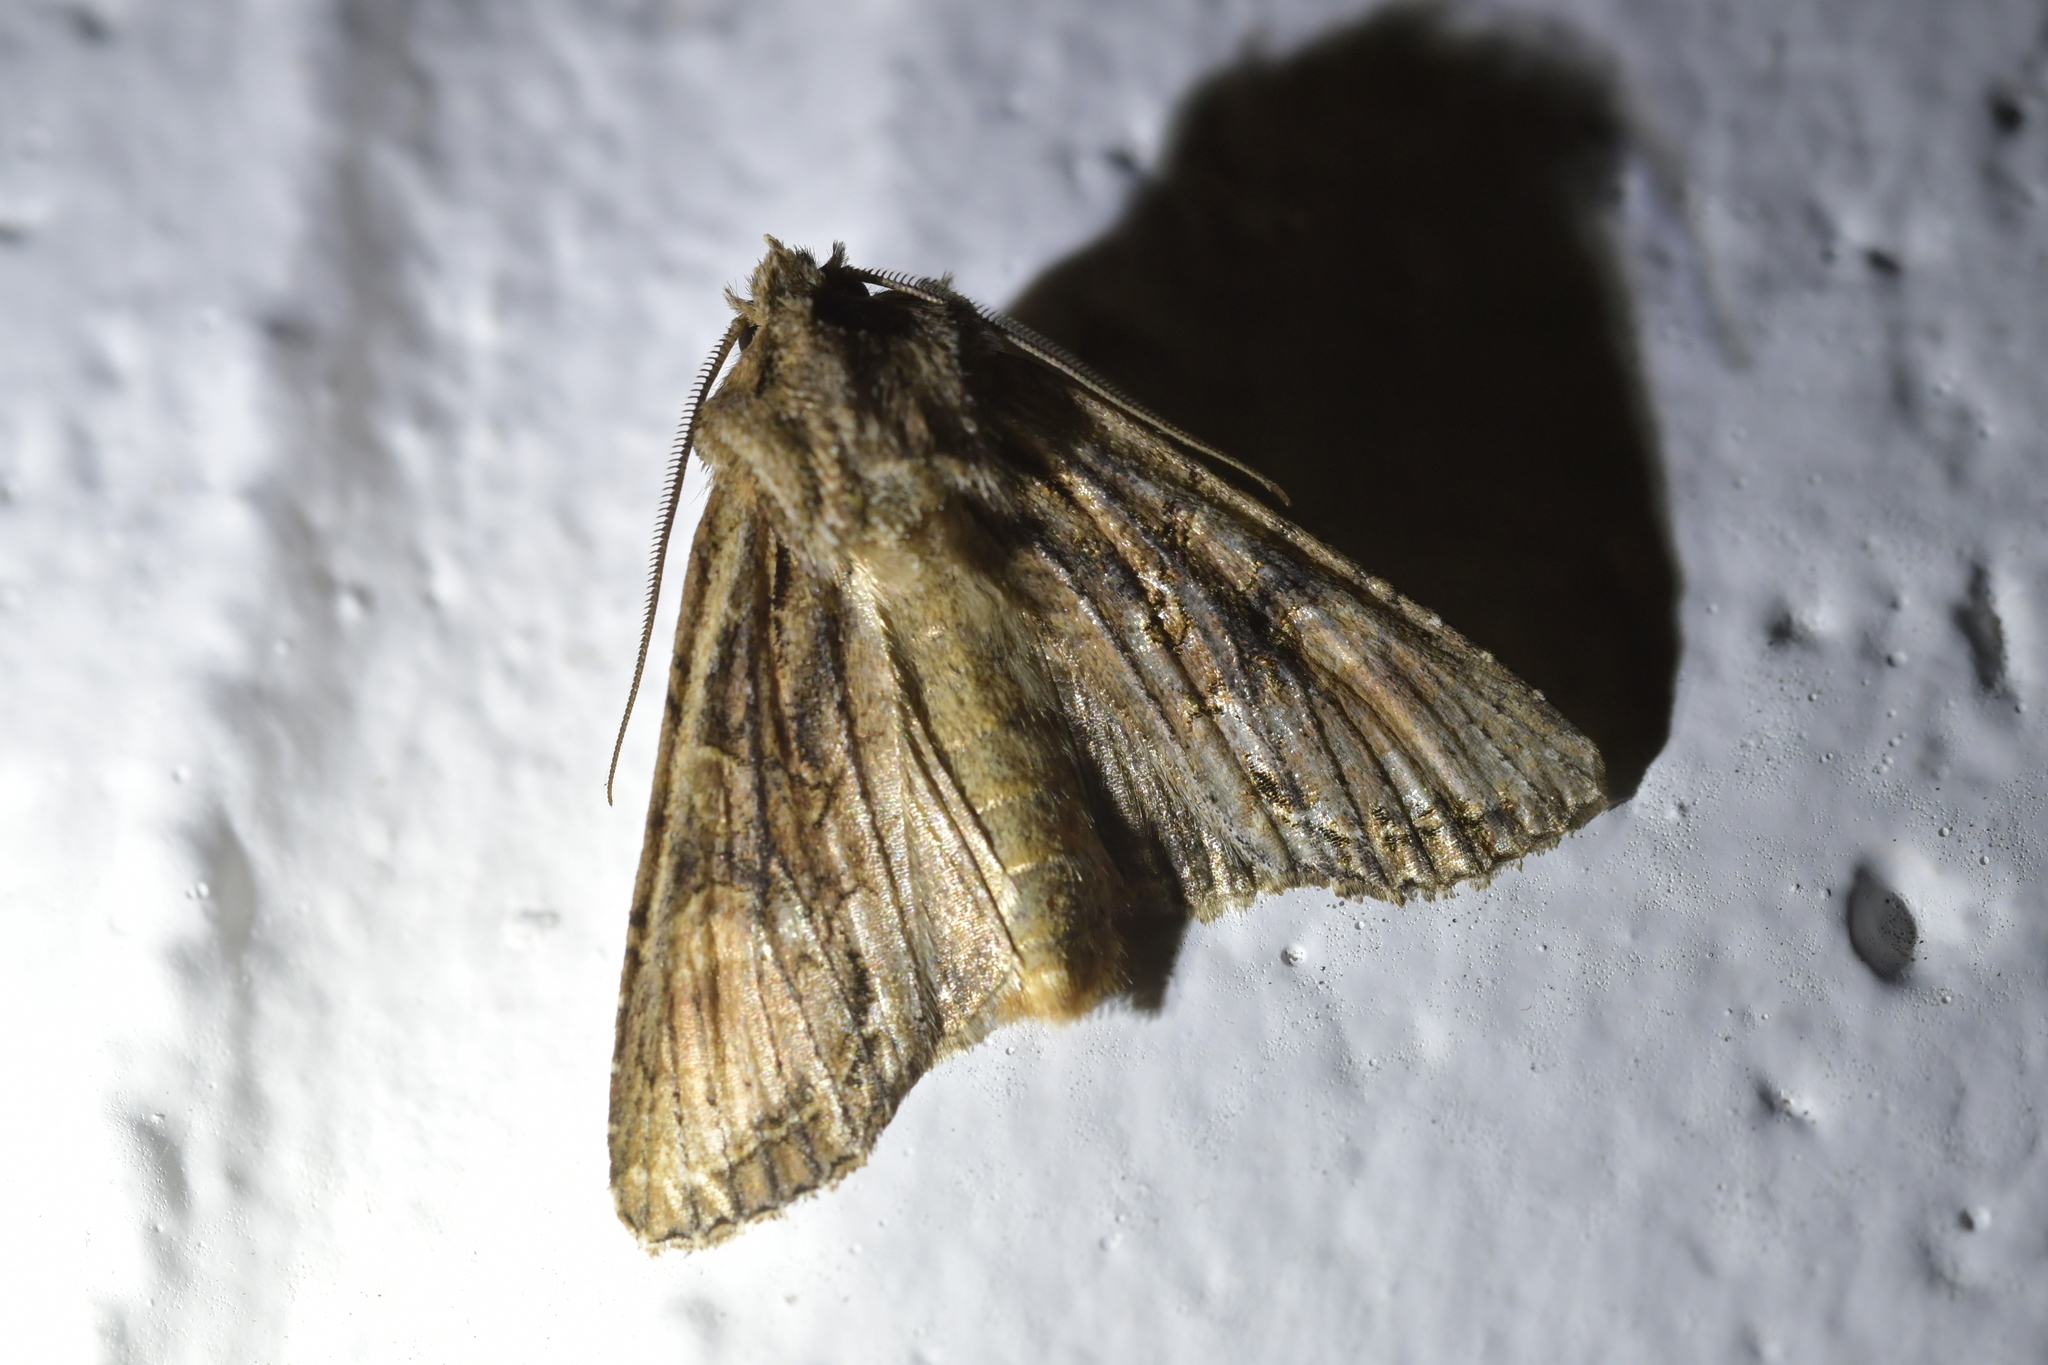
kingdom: Animalia
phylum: Arthropoda
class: Insecta
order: Lepidoptera
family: Noctuidae
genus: Ichneutica
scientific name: Ichneutica mutans
